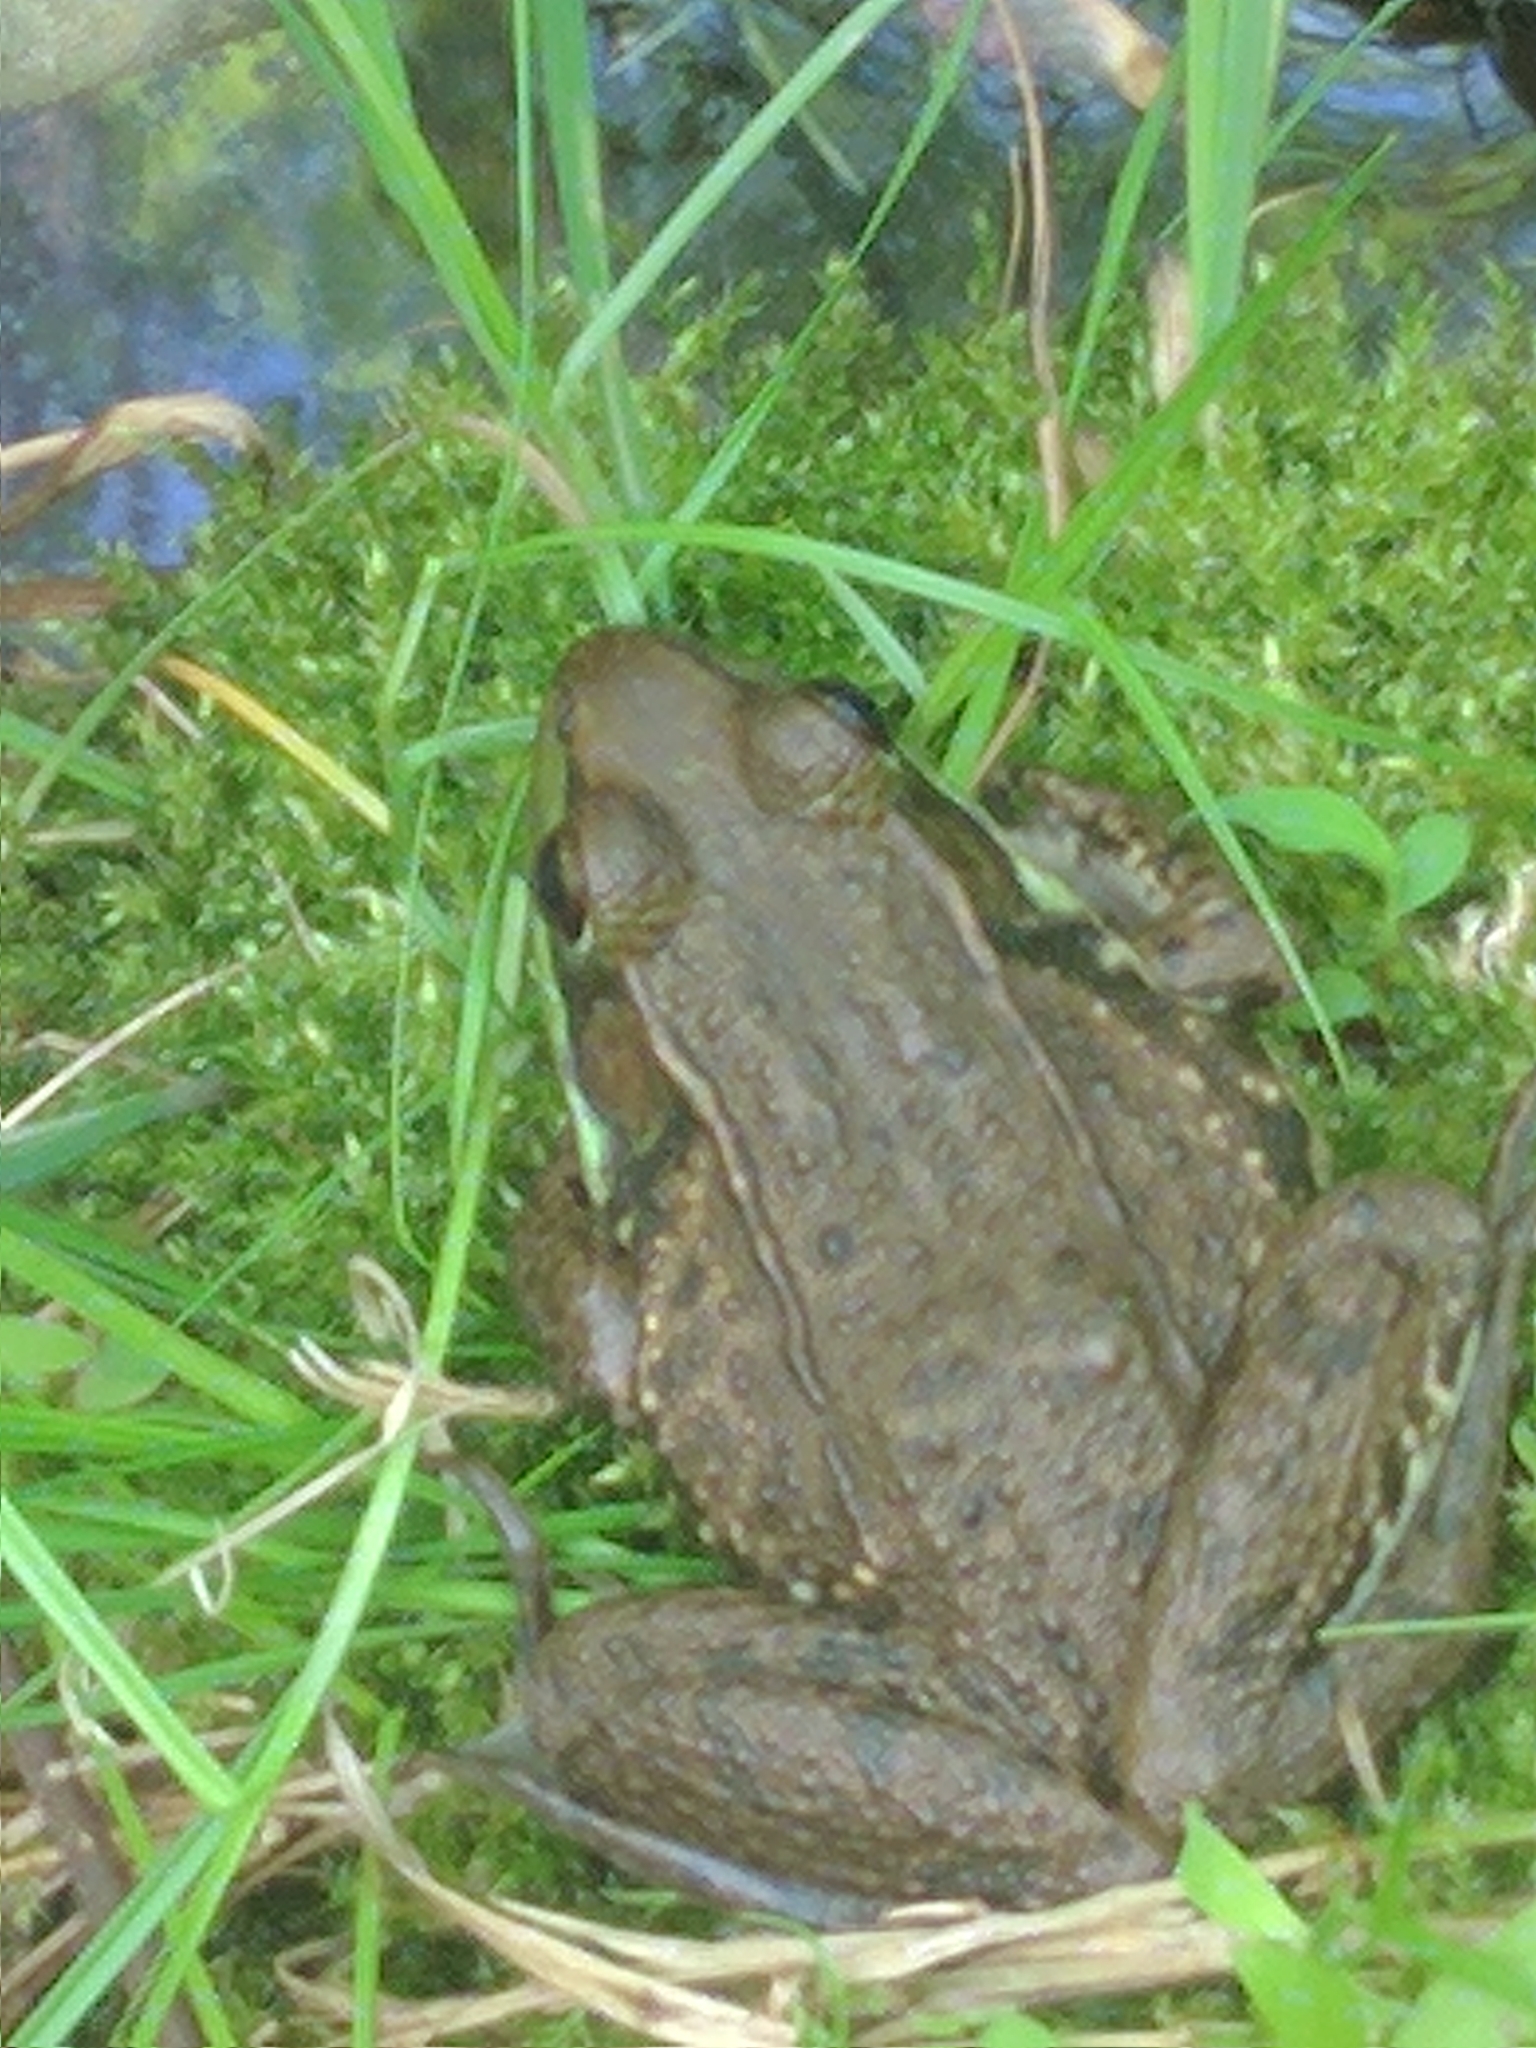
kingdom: Animalia
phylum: Chordata
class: Amphibia
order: Anura
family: Ranidae
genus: Lithobates
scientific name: Lithobates clamitans
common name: Green frog
